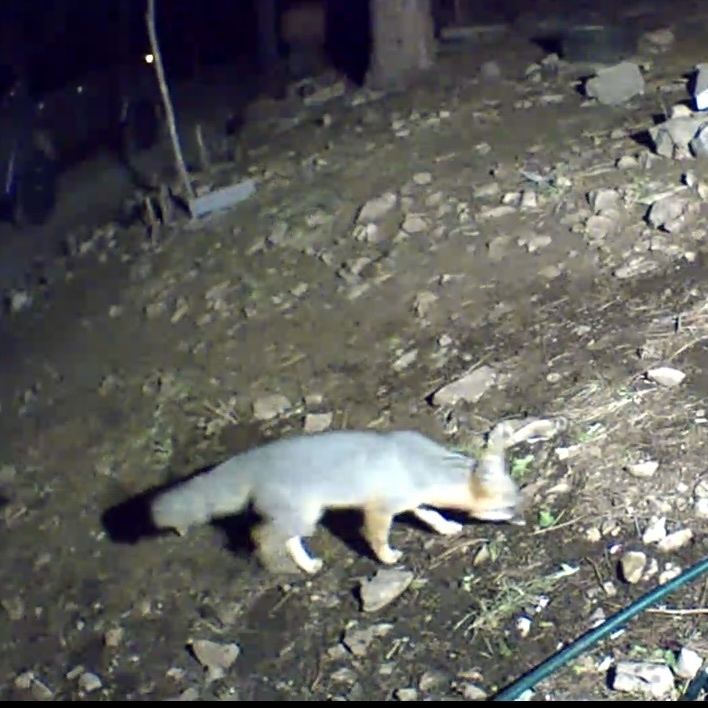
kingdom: Animalia
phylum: Chordata
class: Mammalia
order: Carnivora
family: Canidae
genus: Urocyon
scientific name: Urocyon cinereoargenteus
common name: Gray fox
